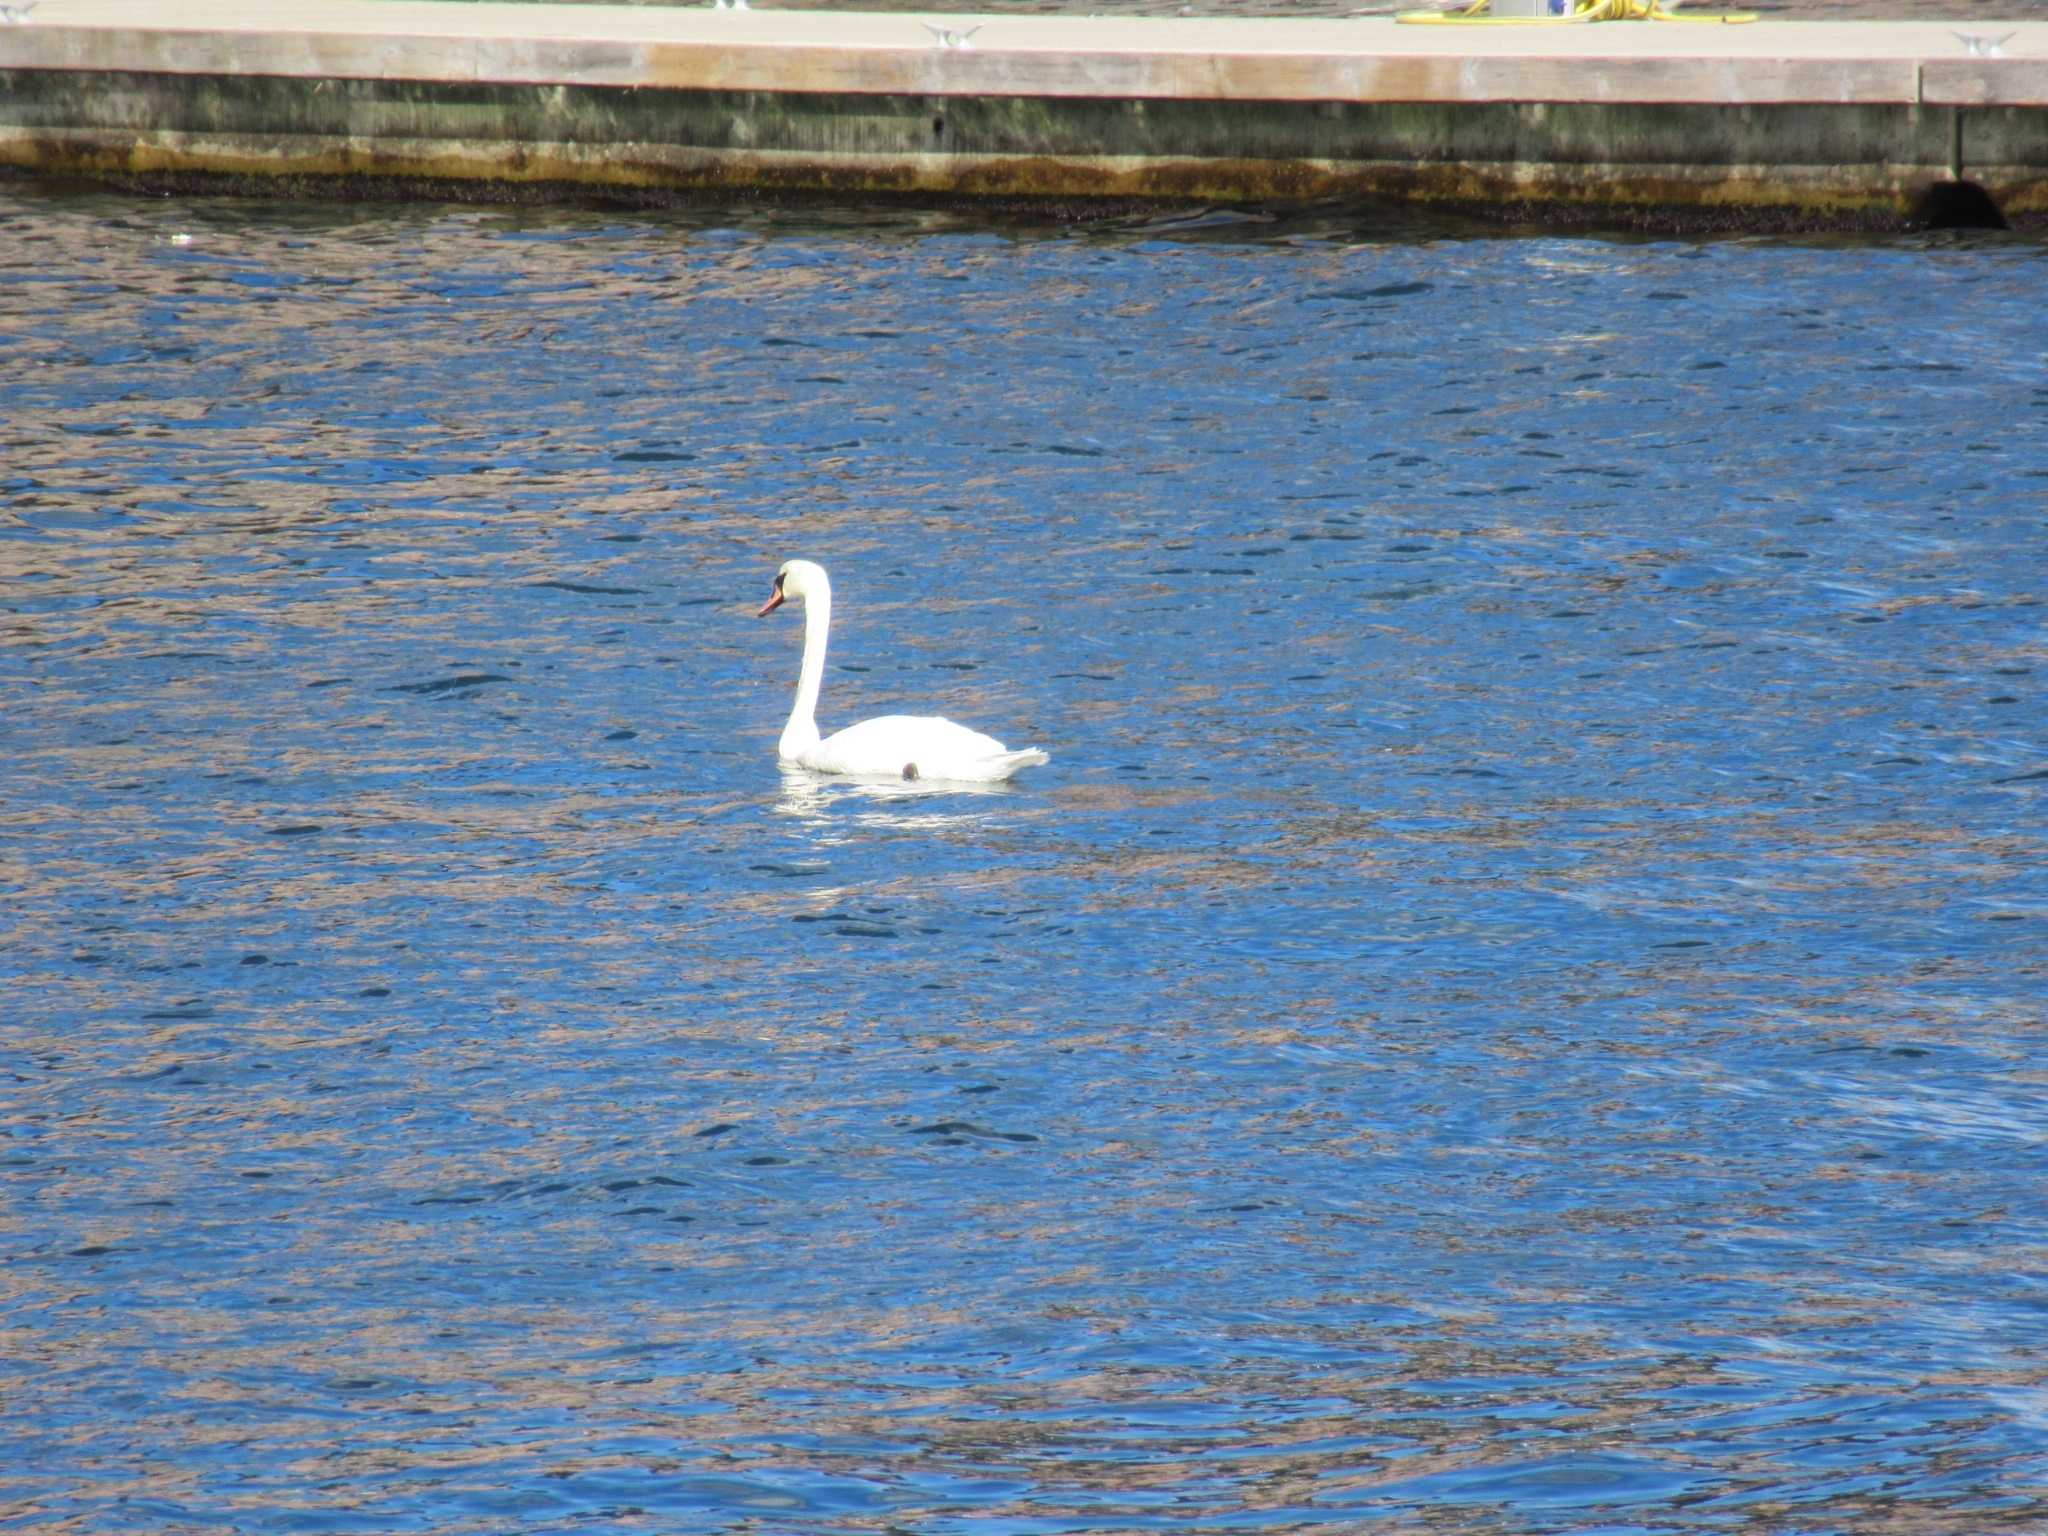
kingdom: Animalia
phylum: Chordata
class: Aves
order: Anseriformes
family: Anatidae
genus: Cygnus
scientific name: Cygnus olor
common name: Mute swan
